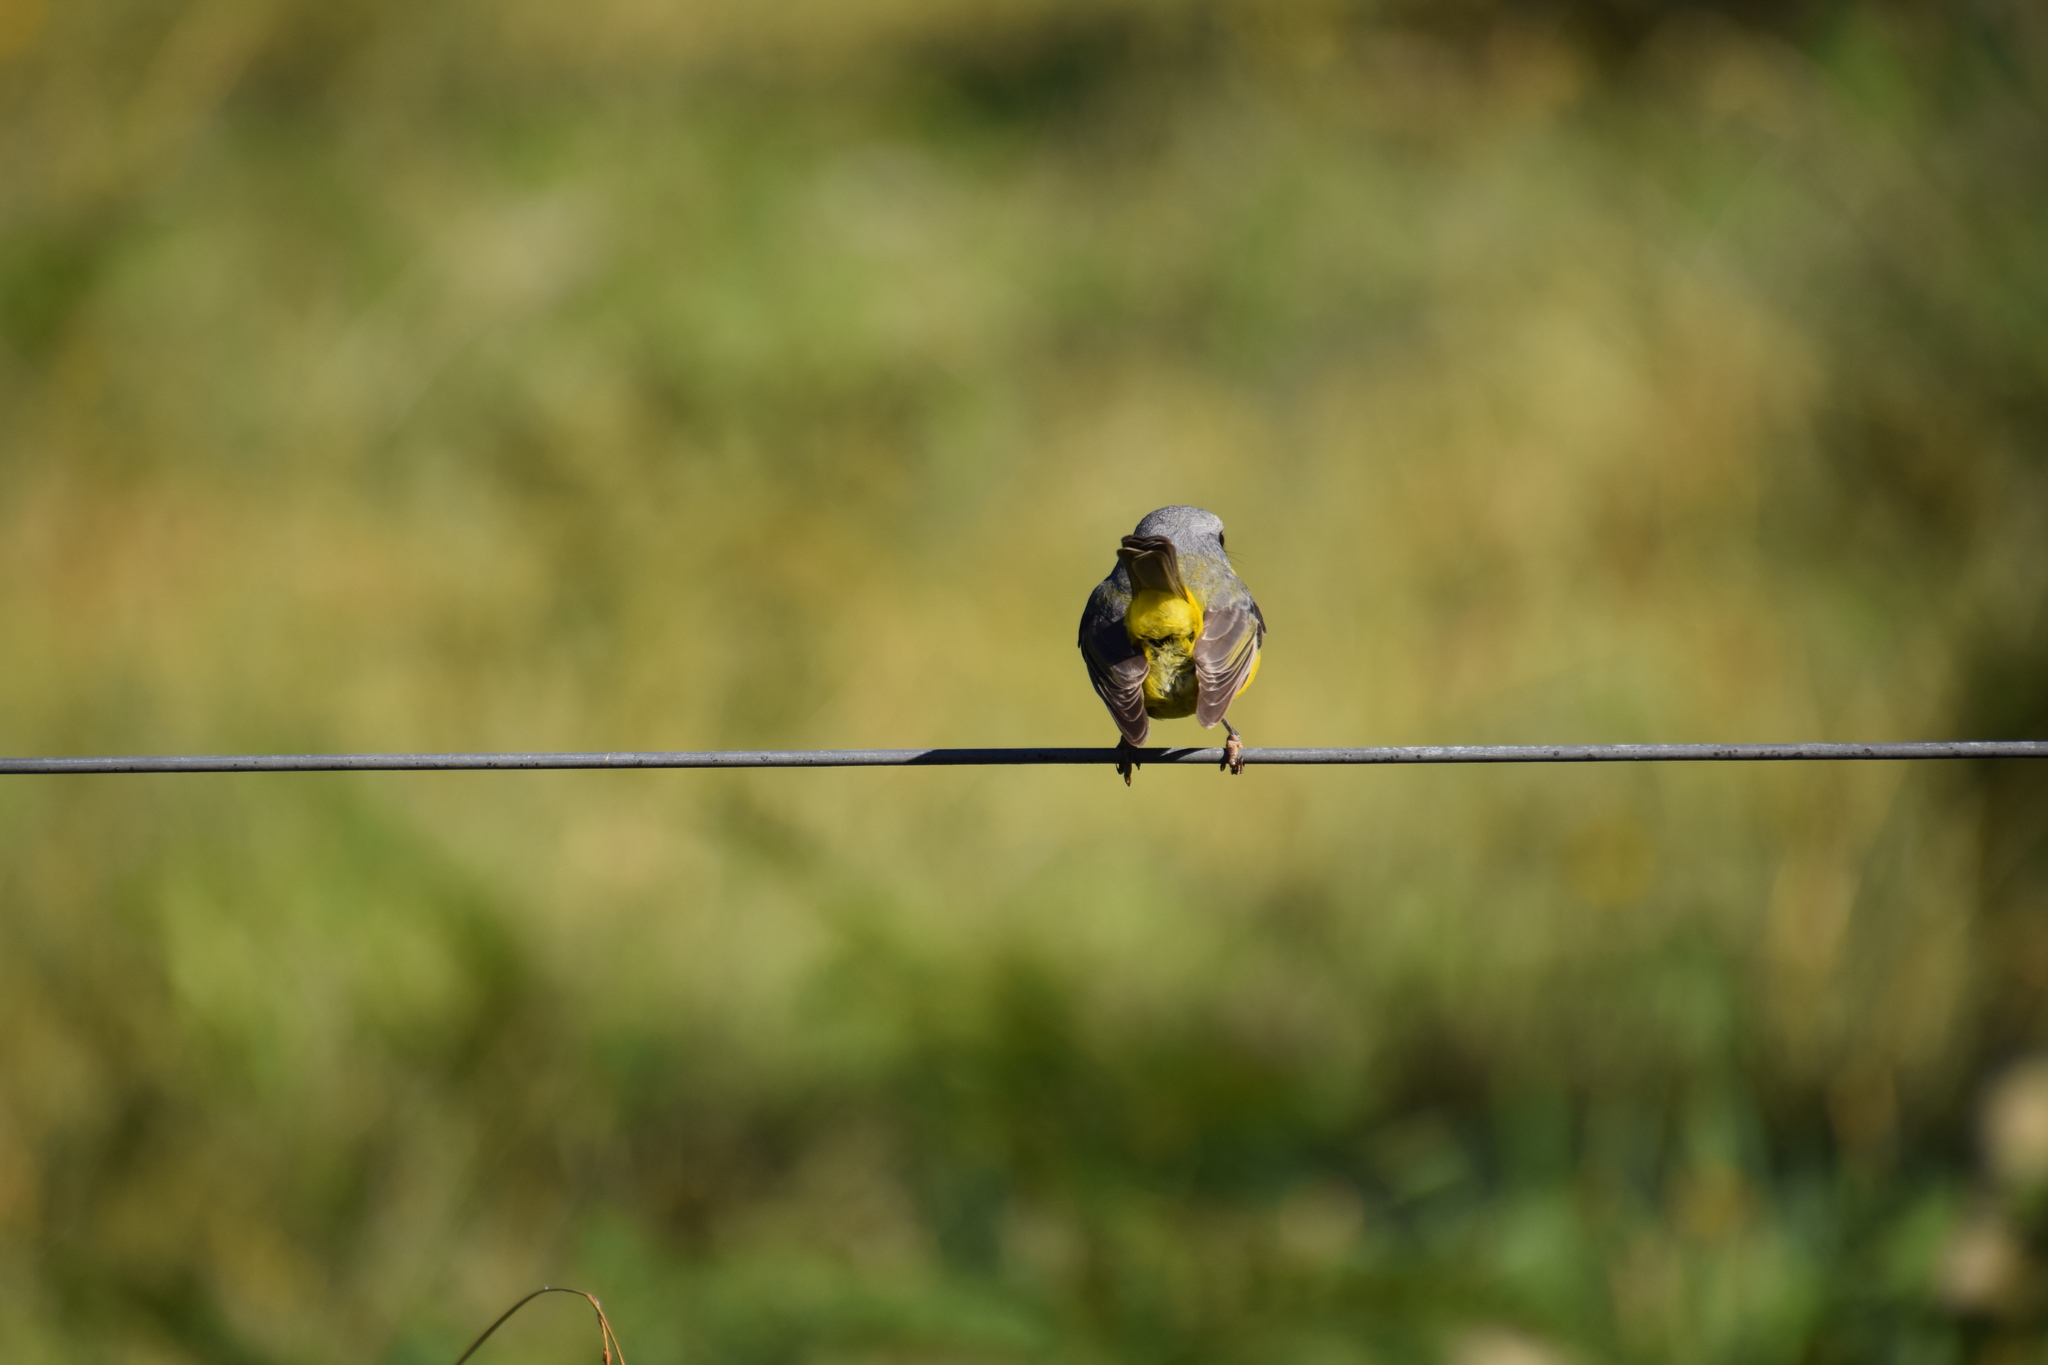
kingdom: Animalia
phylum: Chordata
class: Aves
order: Passeriformes
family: Petroicidae
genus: Eopsaltria
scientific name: Eopsaltria australis
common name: Eastern yellow robin
